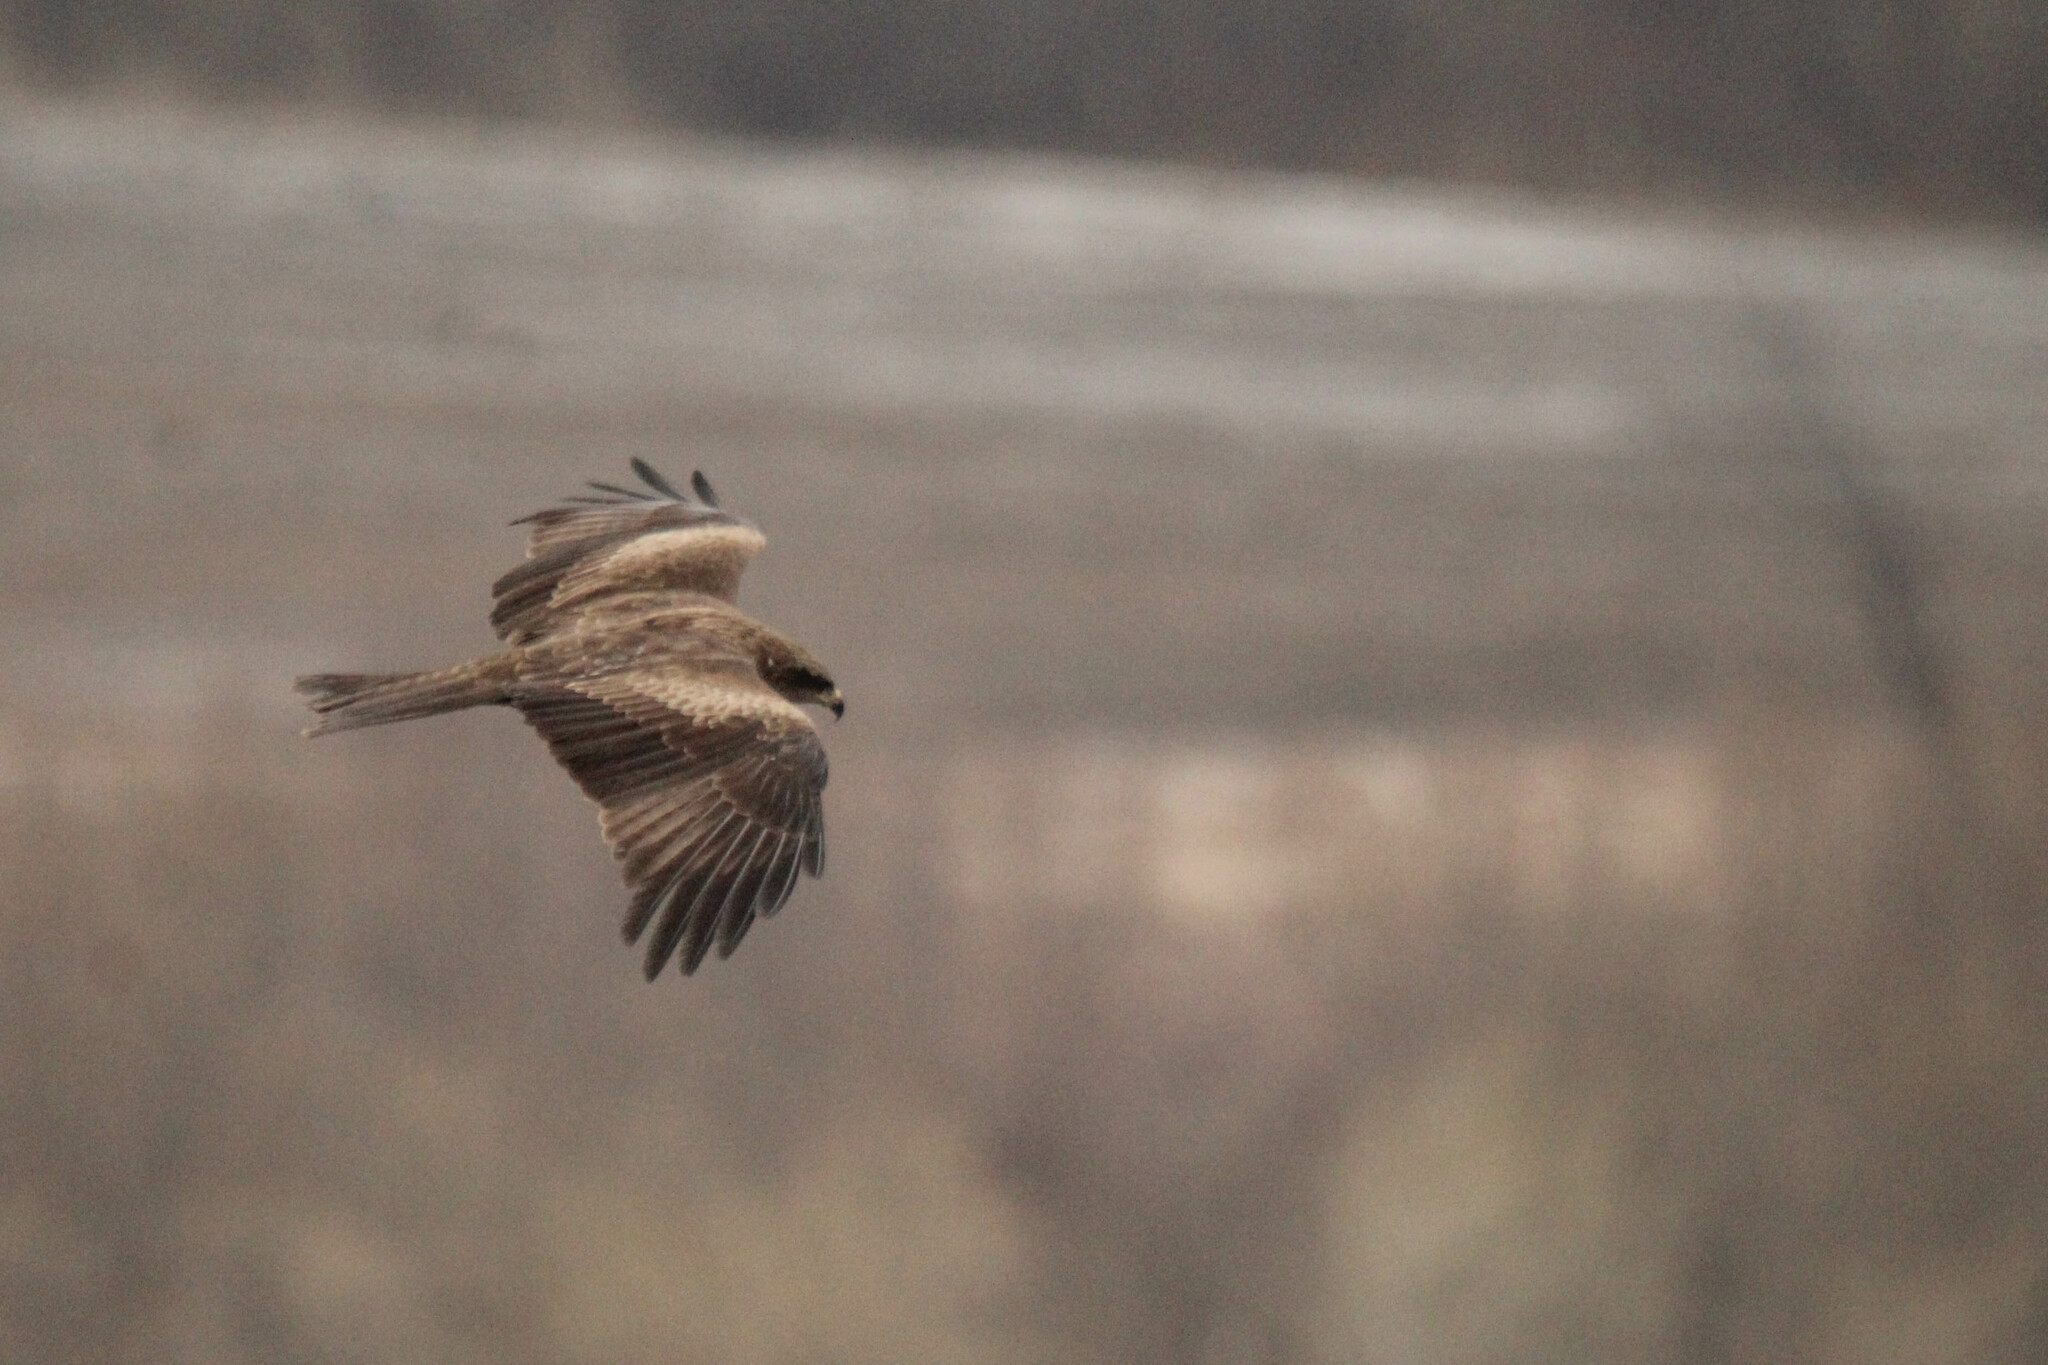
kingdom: Animalia
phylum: Chordata
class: Aves
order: Accipitriformes
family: Accipitridae
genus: Milvus
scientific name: Milvus migrans
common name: Black kite
